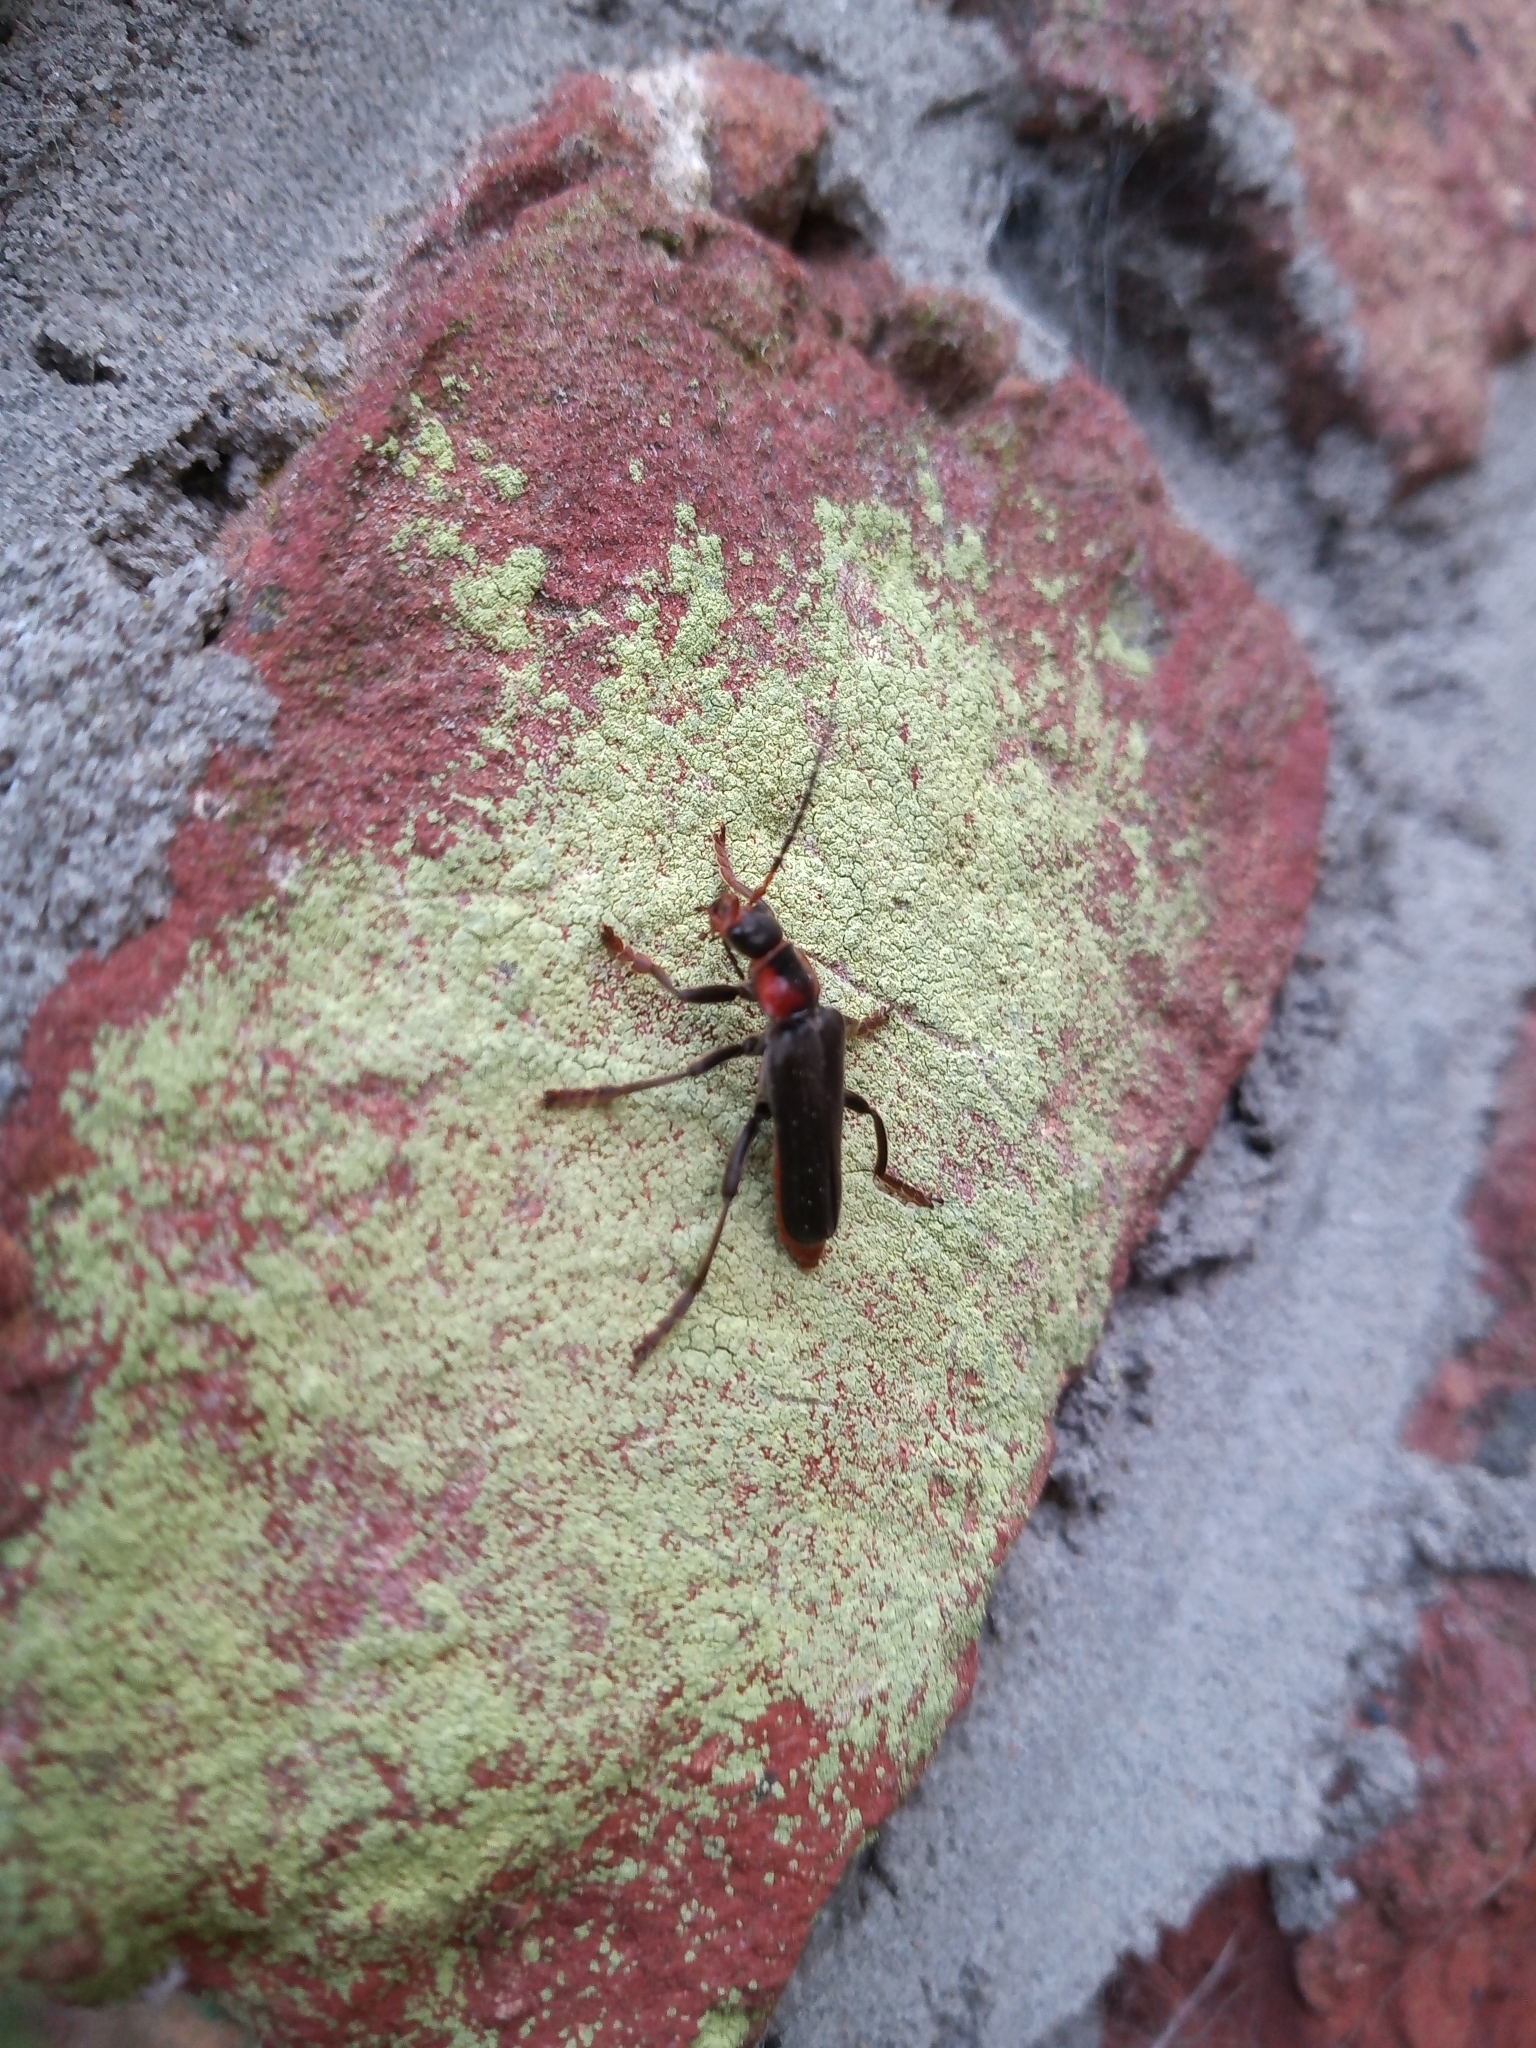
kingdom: Animalia
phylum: Arthropoda
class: Insecta
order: Coleoptera
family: Cantharidae
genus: Cantharis
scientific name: Cantharis fusca
